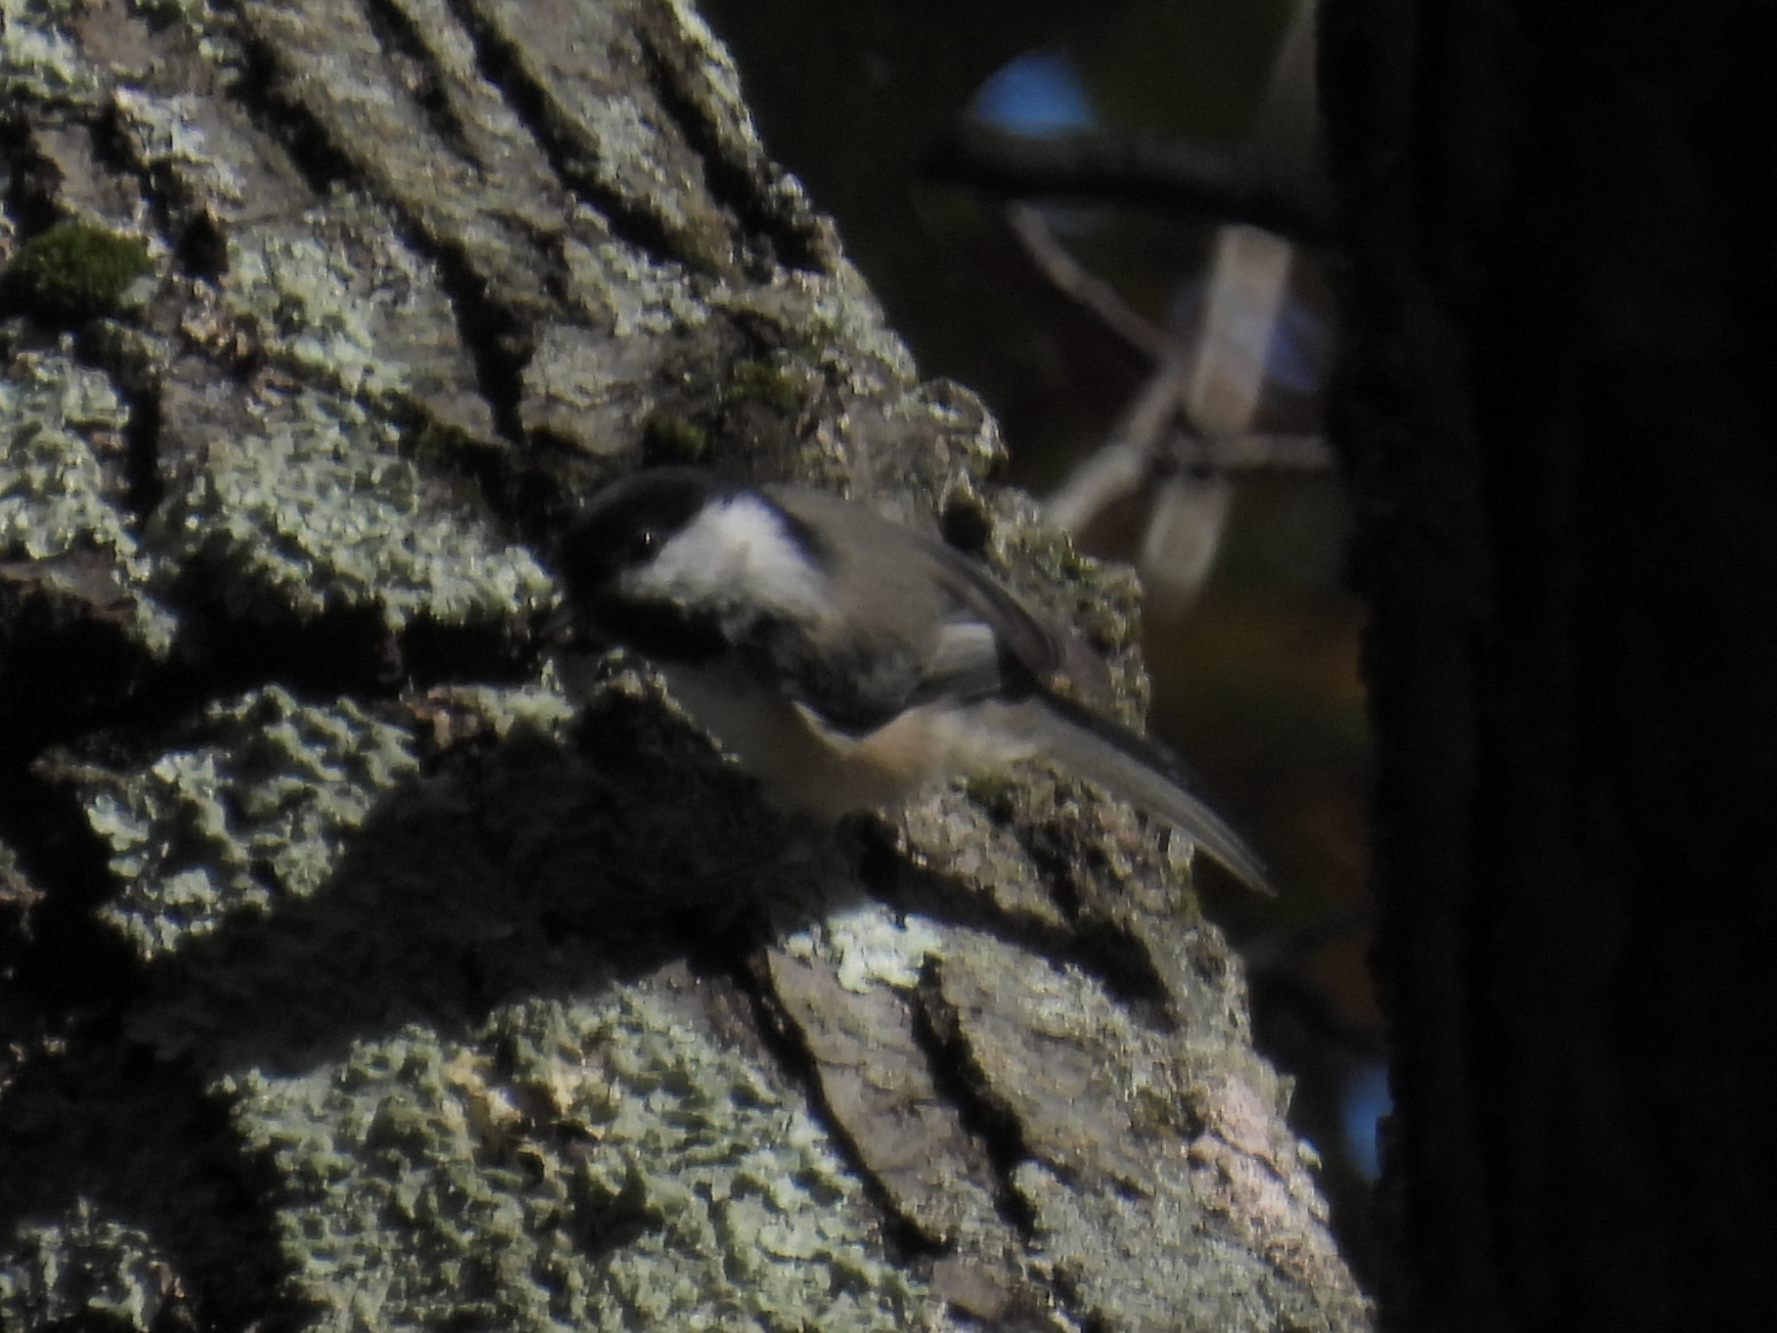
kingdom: Animalia
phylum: Chordata
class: Aves
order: Passeriformes
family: Paridae
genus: Poecile
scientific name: Poecile atricapillus
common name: Black-capped chickadee
